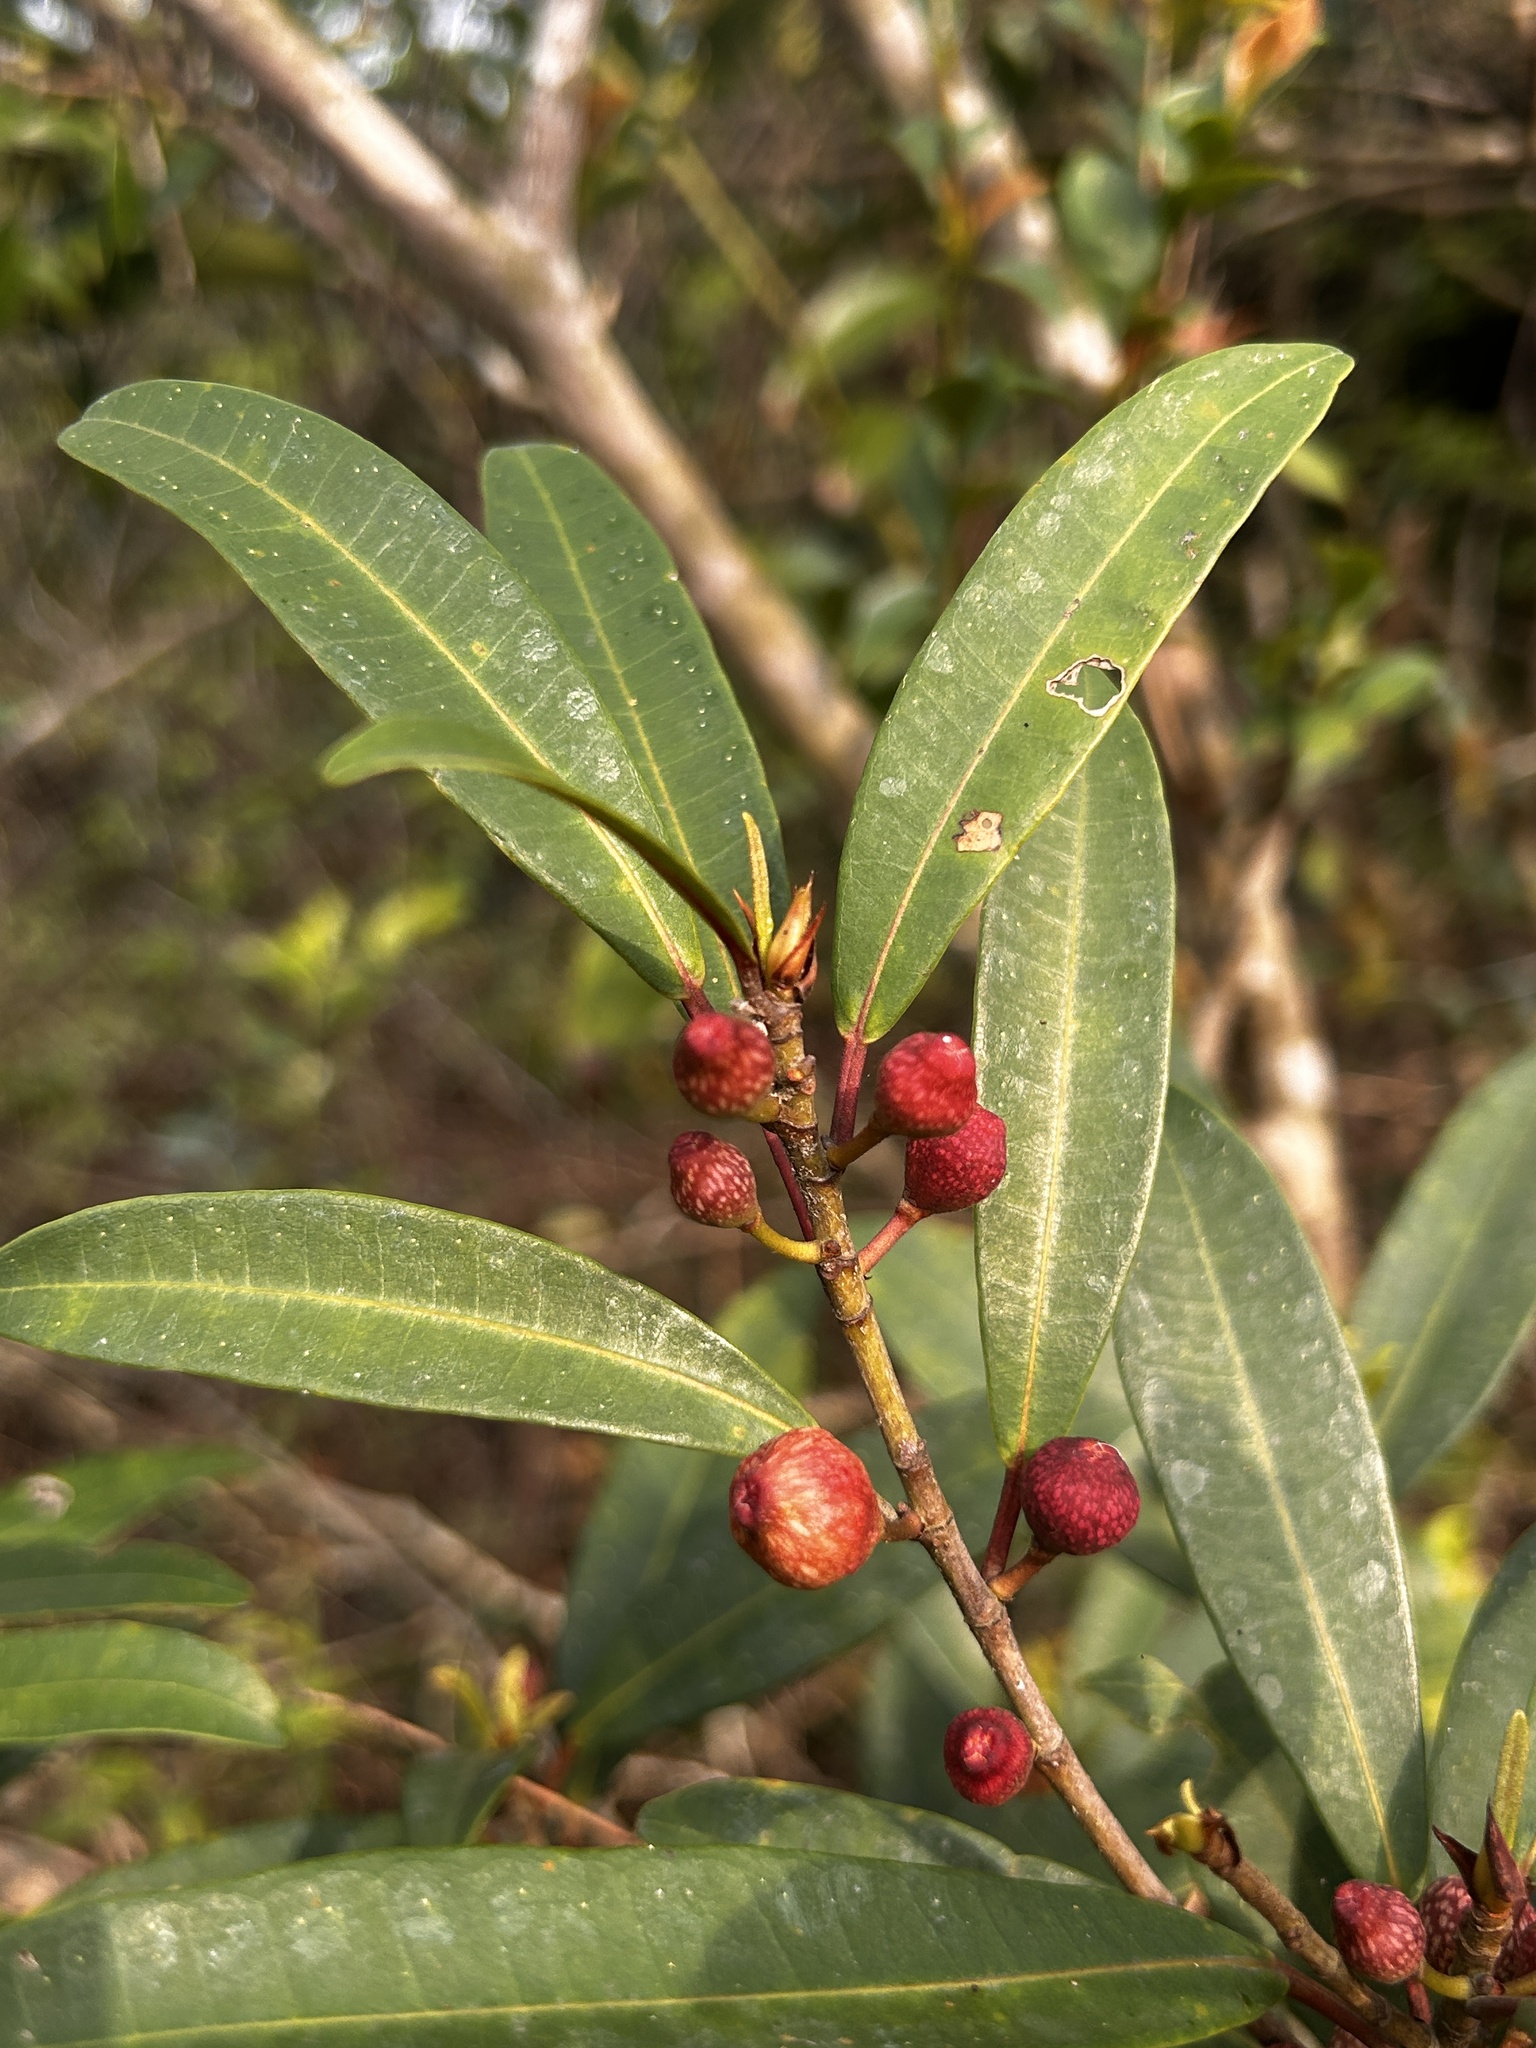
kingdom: Plantae
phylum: Tracheophyta
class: Magnoliopsida
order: Rosales
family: Moraceae
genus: Ficus
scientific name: Ficus variolosa
